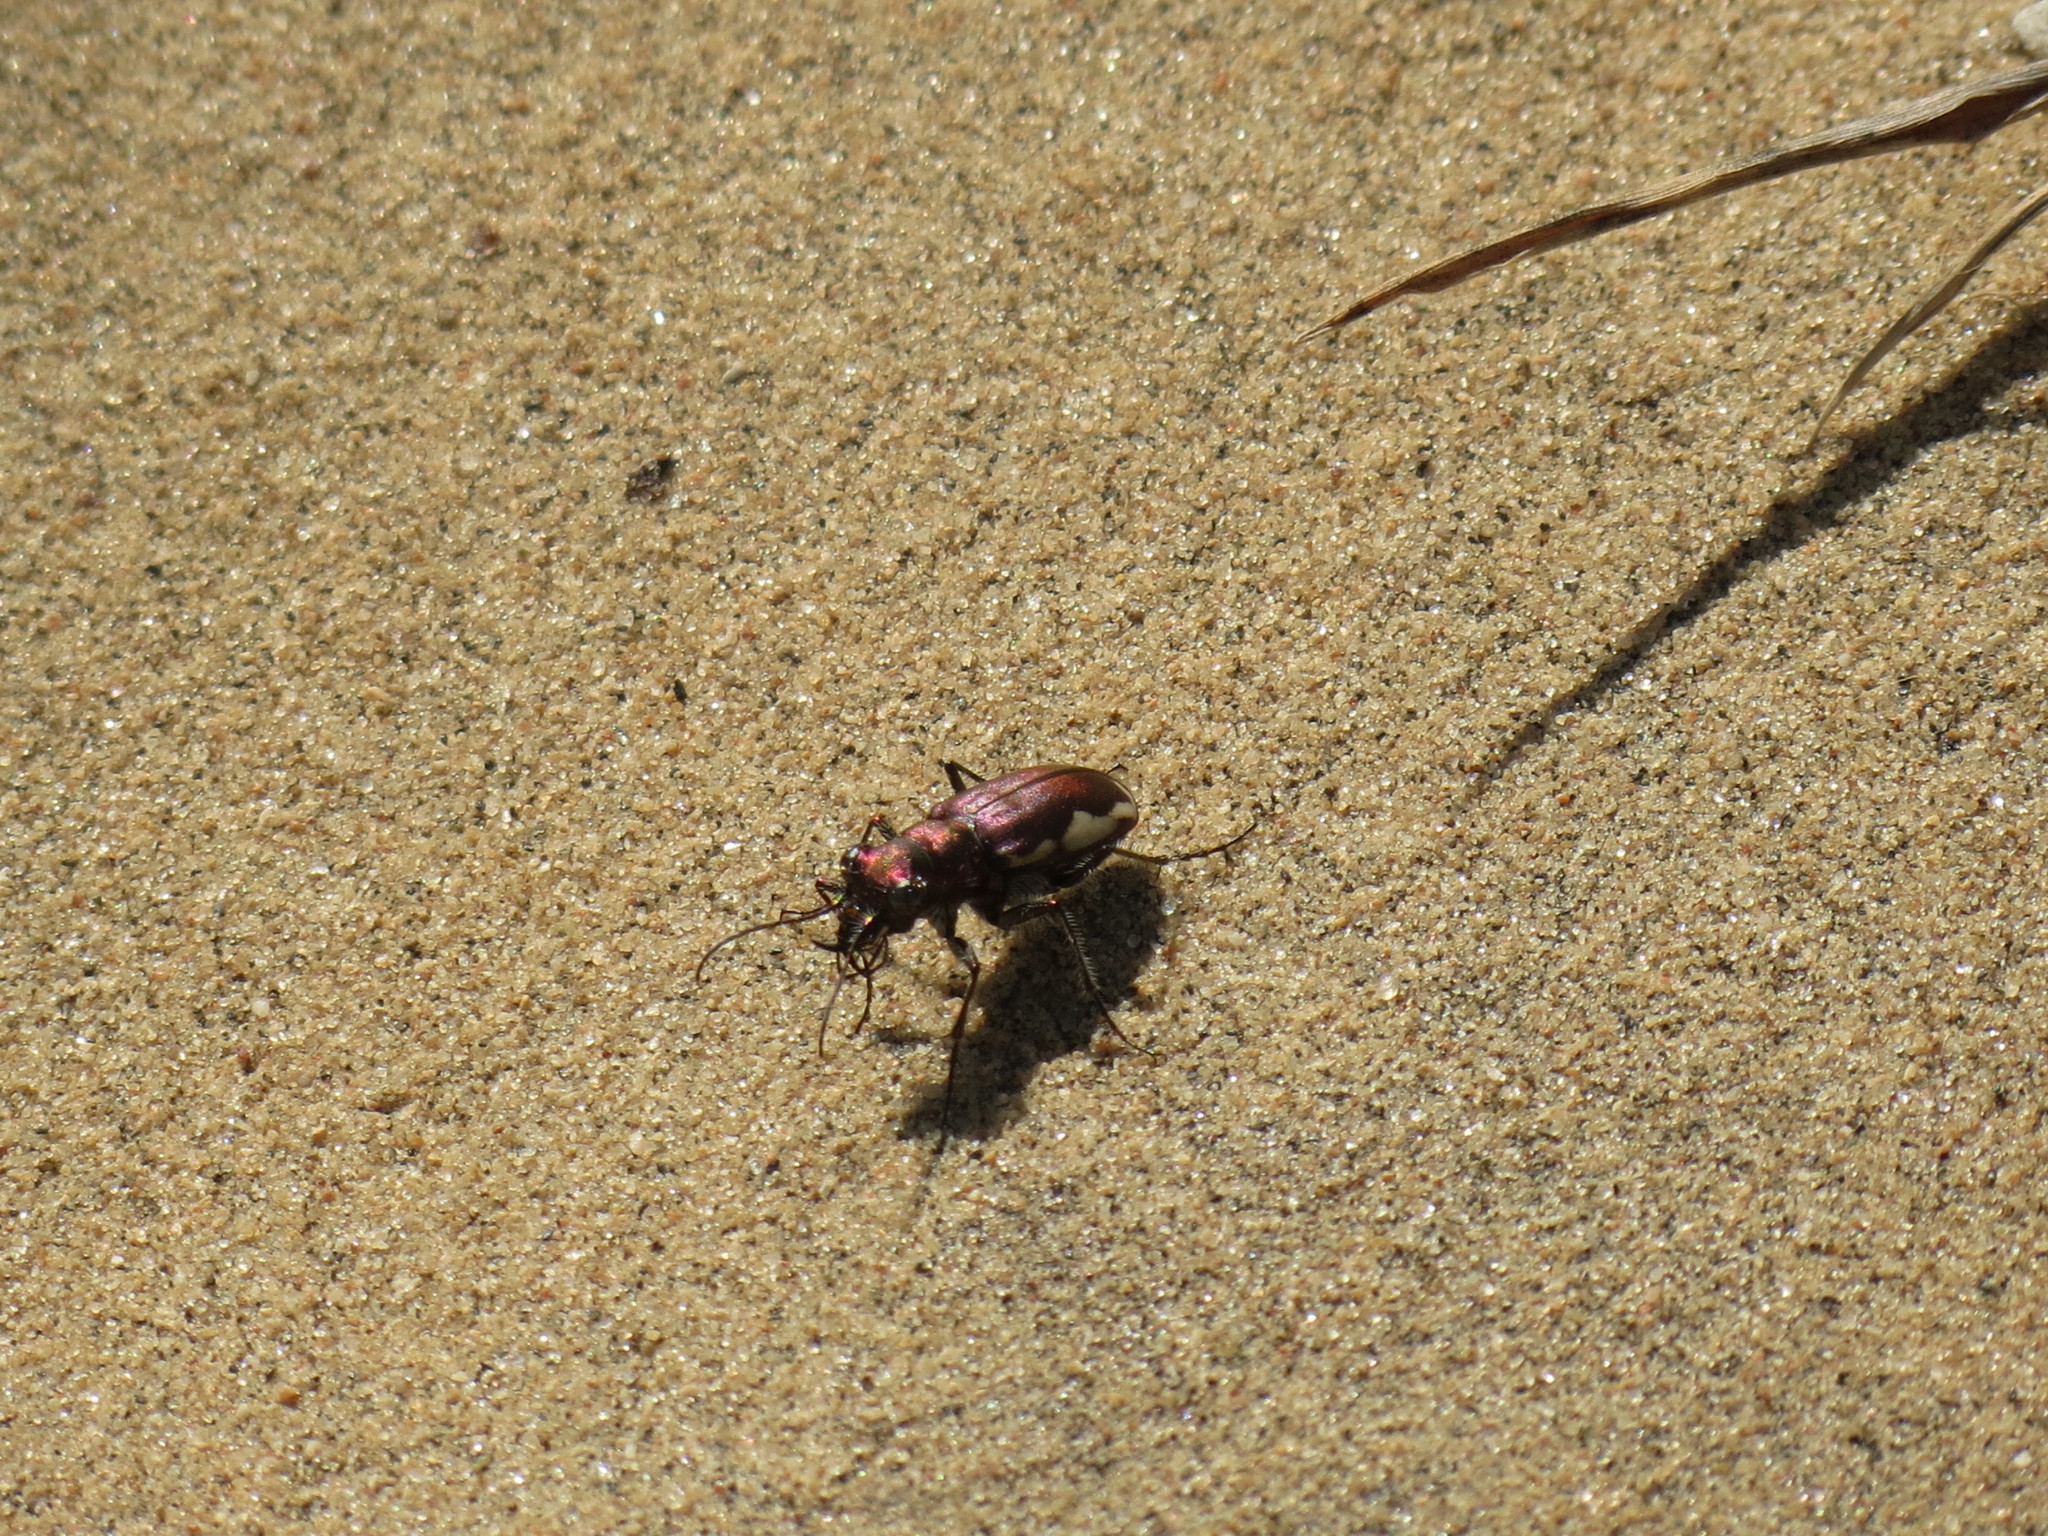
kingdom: Animalia
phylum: Arthropoda
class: Insecta
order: Coleoptera
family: Carabidae
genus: Cicindela
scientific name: Cicindela scutellaris
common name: Festive tiger beetle
